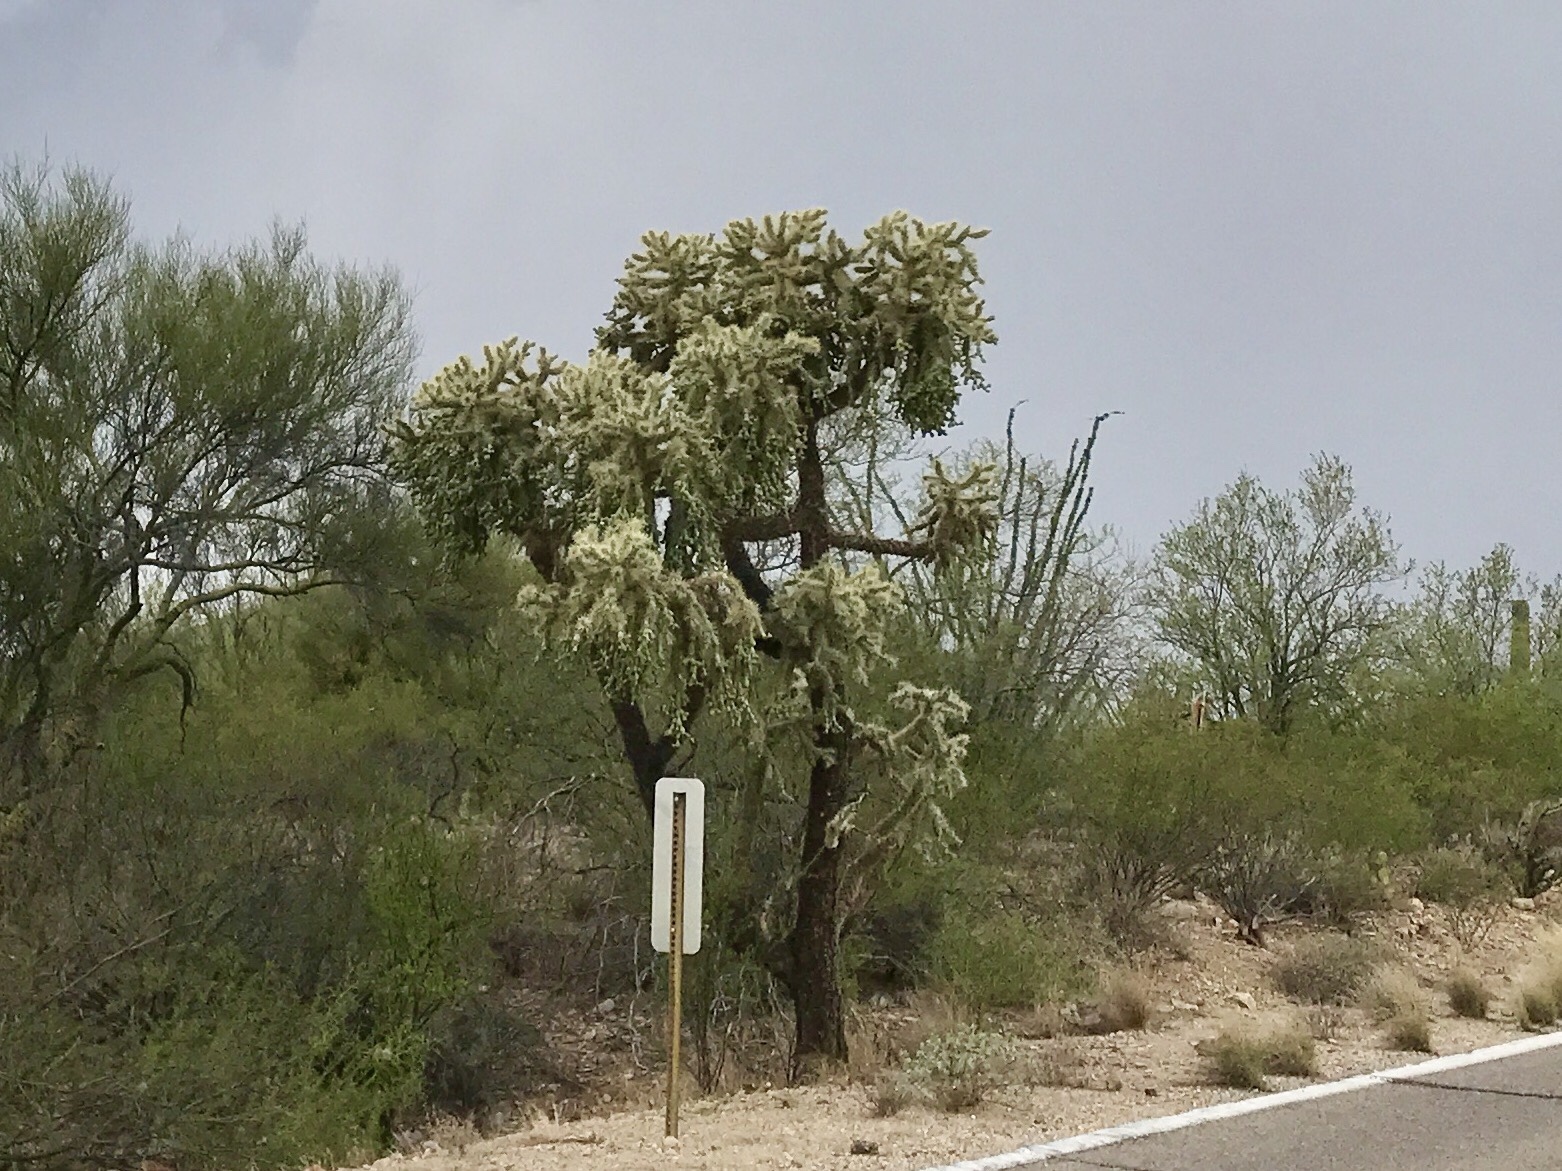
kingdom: Plantae
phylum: Tracheophyta
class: Magnoliopsida
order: Caryophyllales
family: Cactaceae
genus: Cylindropuntia
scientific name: Cylindropuntia fulgida
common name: Jumping cholla
